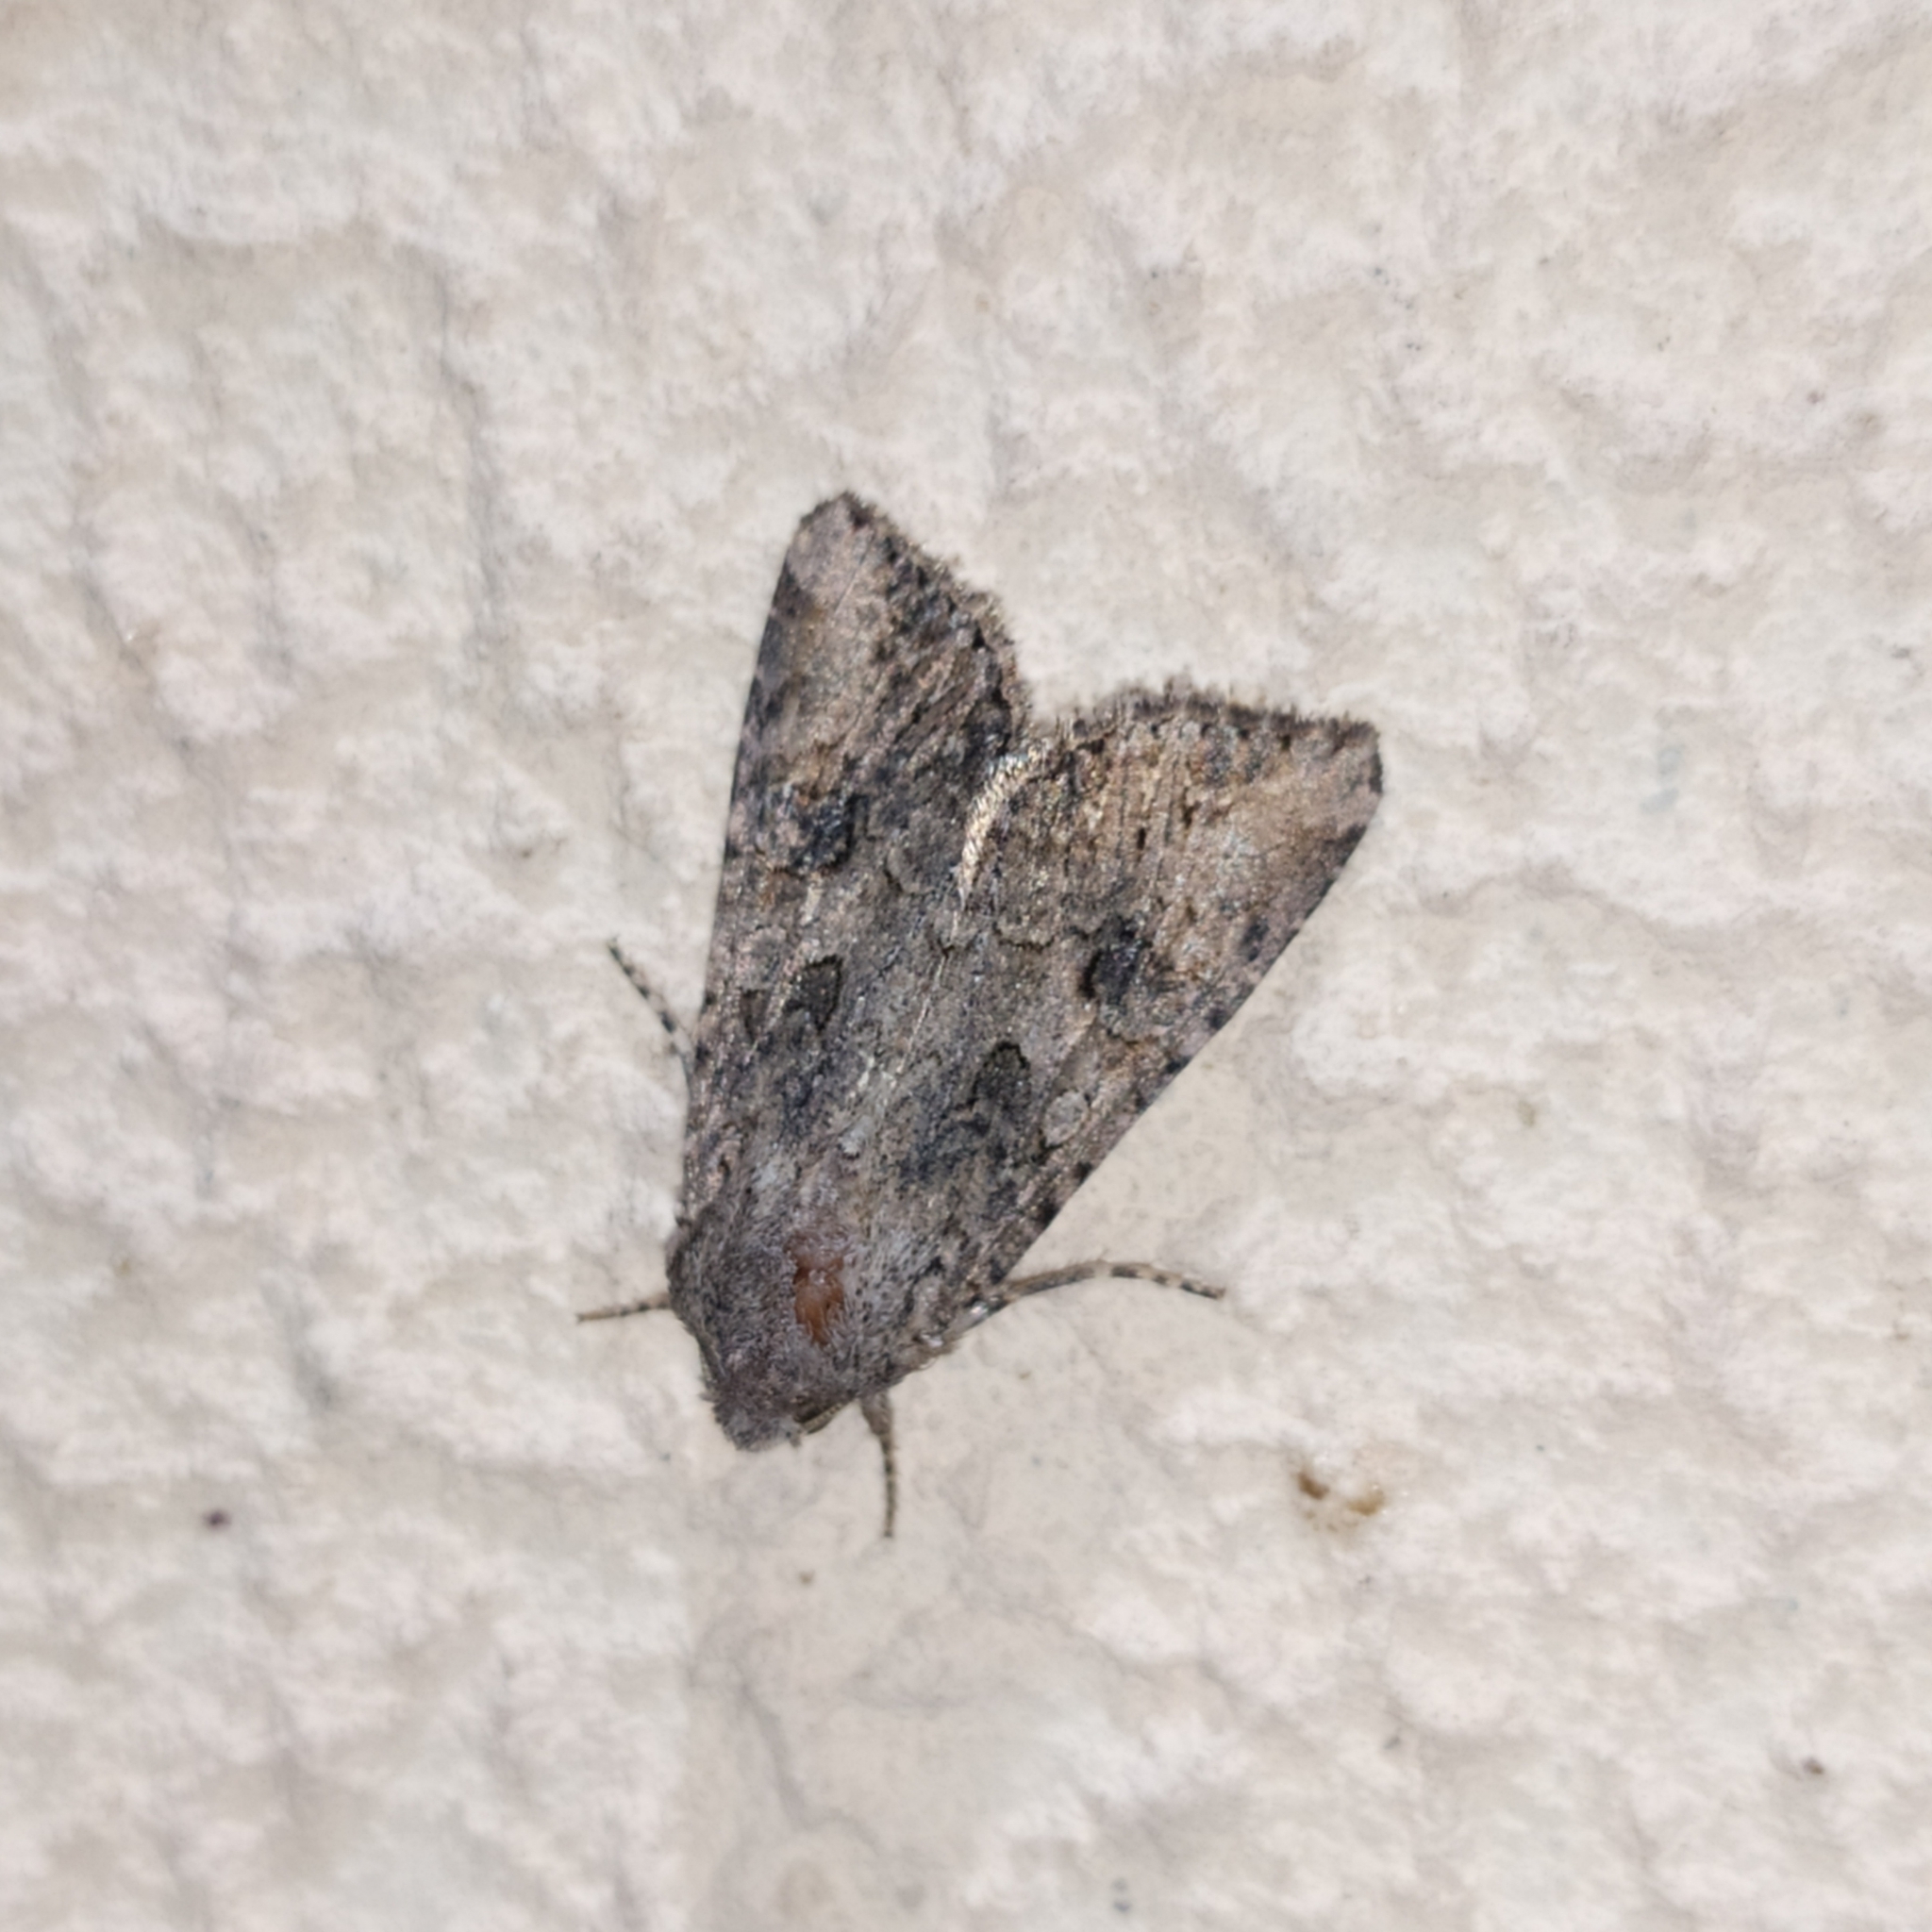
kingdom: Animalia
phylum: Arthropoda
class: Insecta
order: Lepidoptera
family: Noctuidae
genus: Anarta
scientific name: Anarta trifolii
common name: Clover cutworm moth
